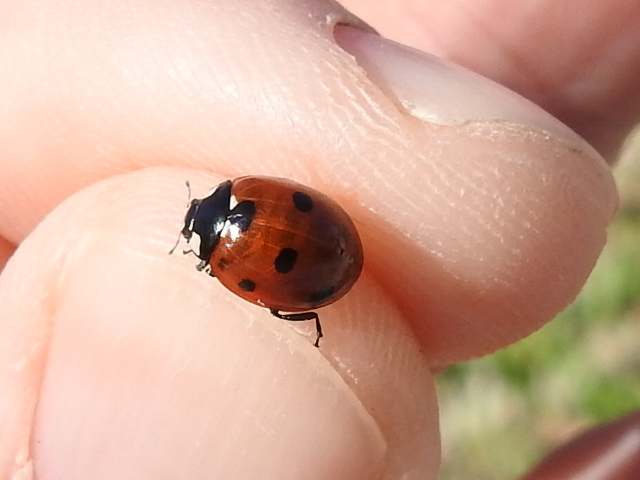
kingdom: Animalia
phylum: Arthropoda
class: Insecta
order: Coleoptera
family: Coccinellidae
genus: Coccinella
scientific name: Coccinella septempunctata
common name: Sevenspotted lady beetle
